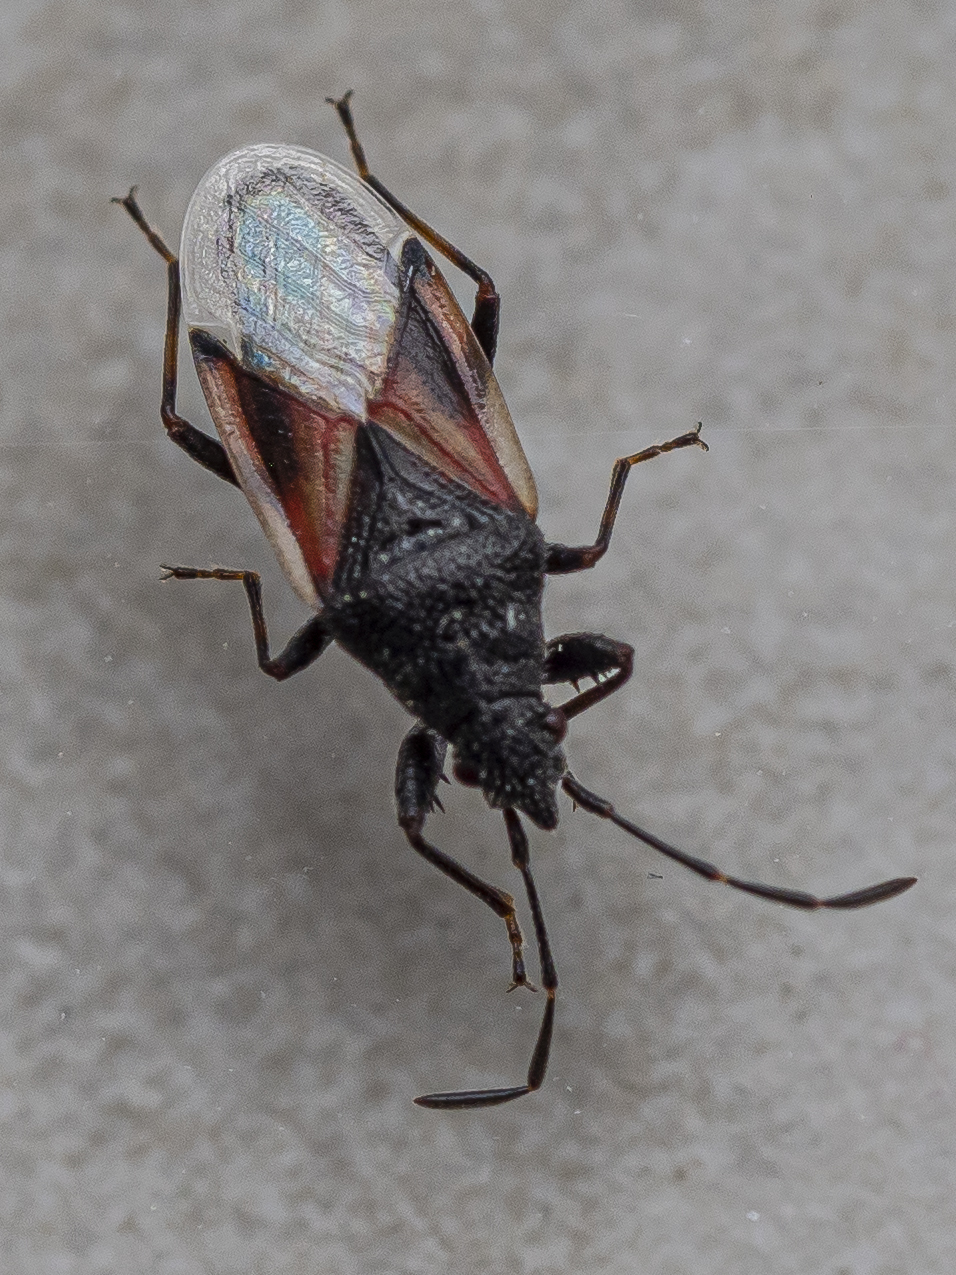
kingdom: Animalia
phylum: Arthropoda
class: Insecta
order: Hemiptera
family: Oxycarenidae
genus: Oxycarenus
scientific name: Oxycarenus lavaterae
